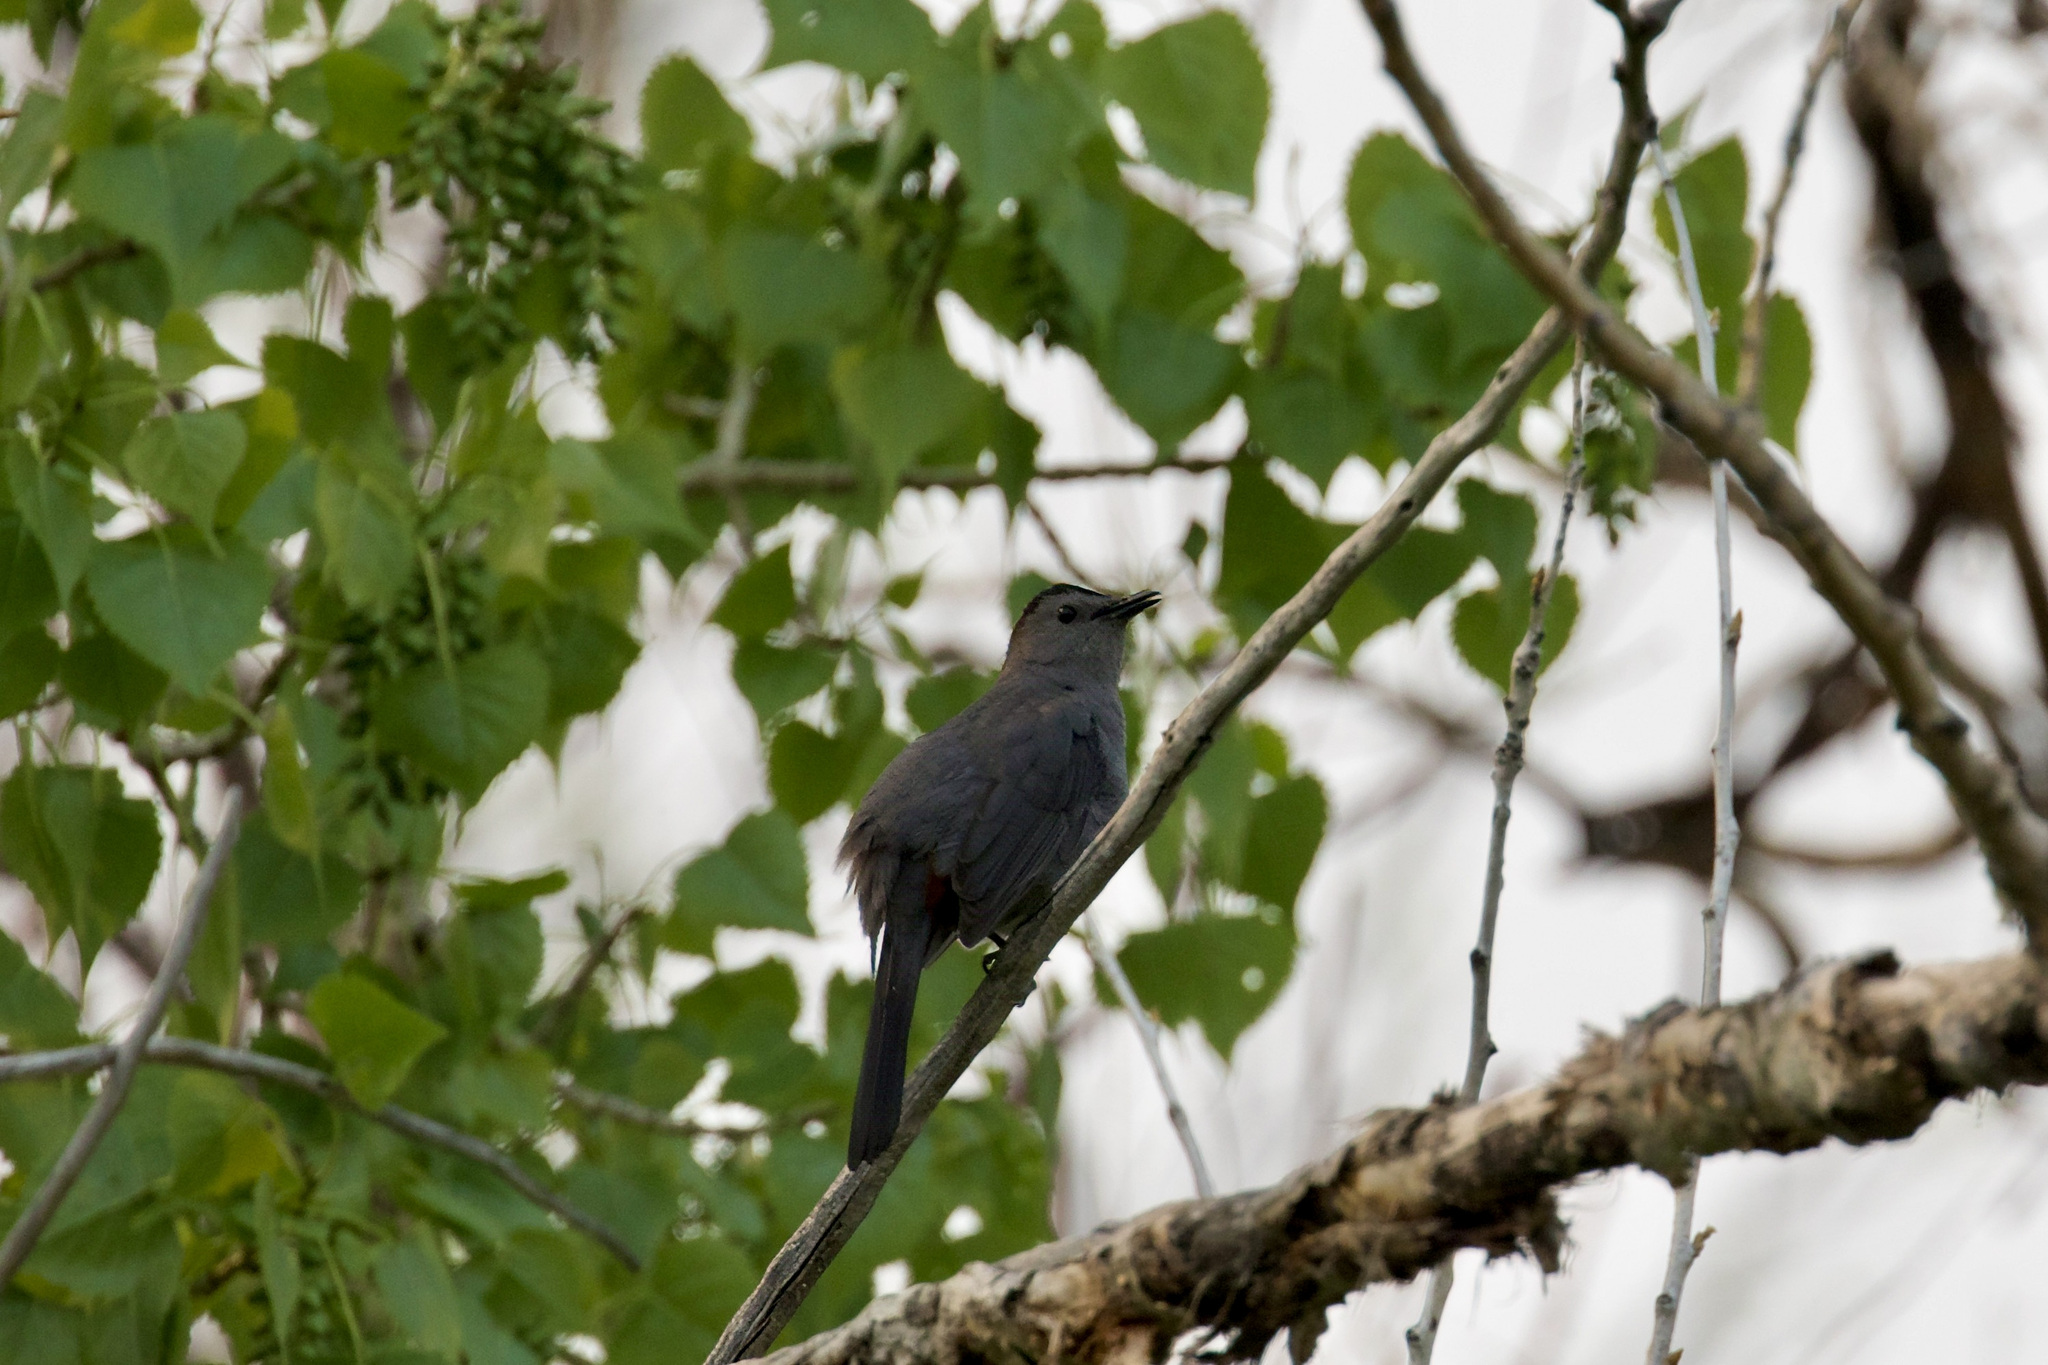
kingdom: Animalia
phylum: Chordata
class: Aves
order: Passeriformes
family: Mimidae
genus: Dumetella
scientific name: Dumetella carolinensis
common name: Gray catbird
